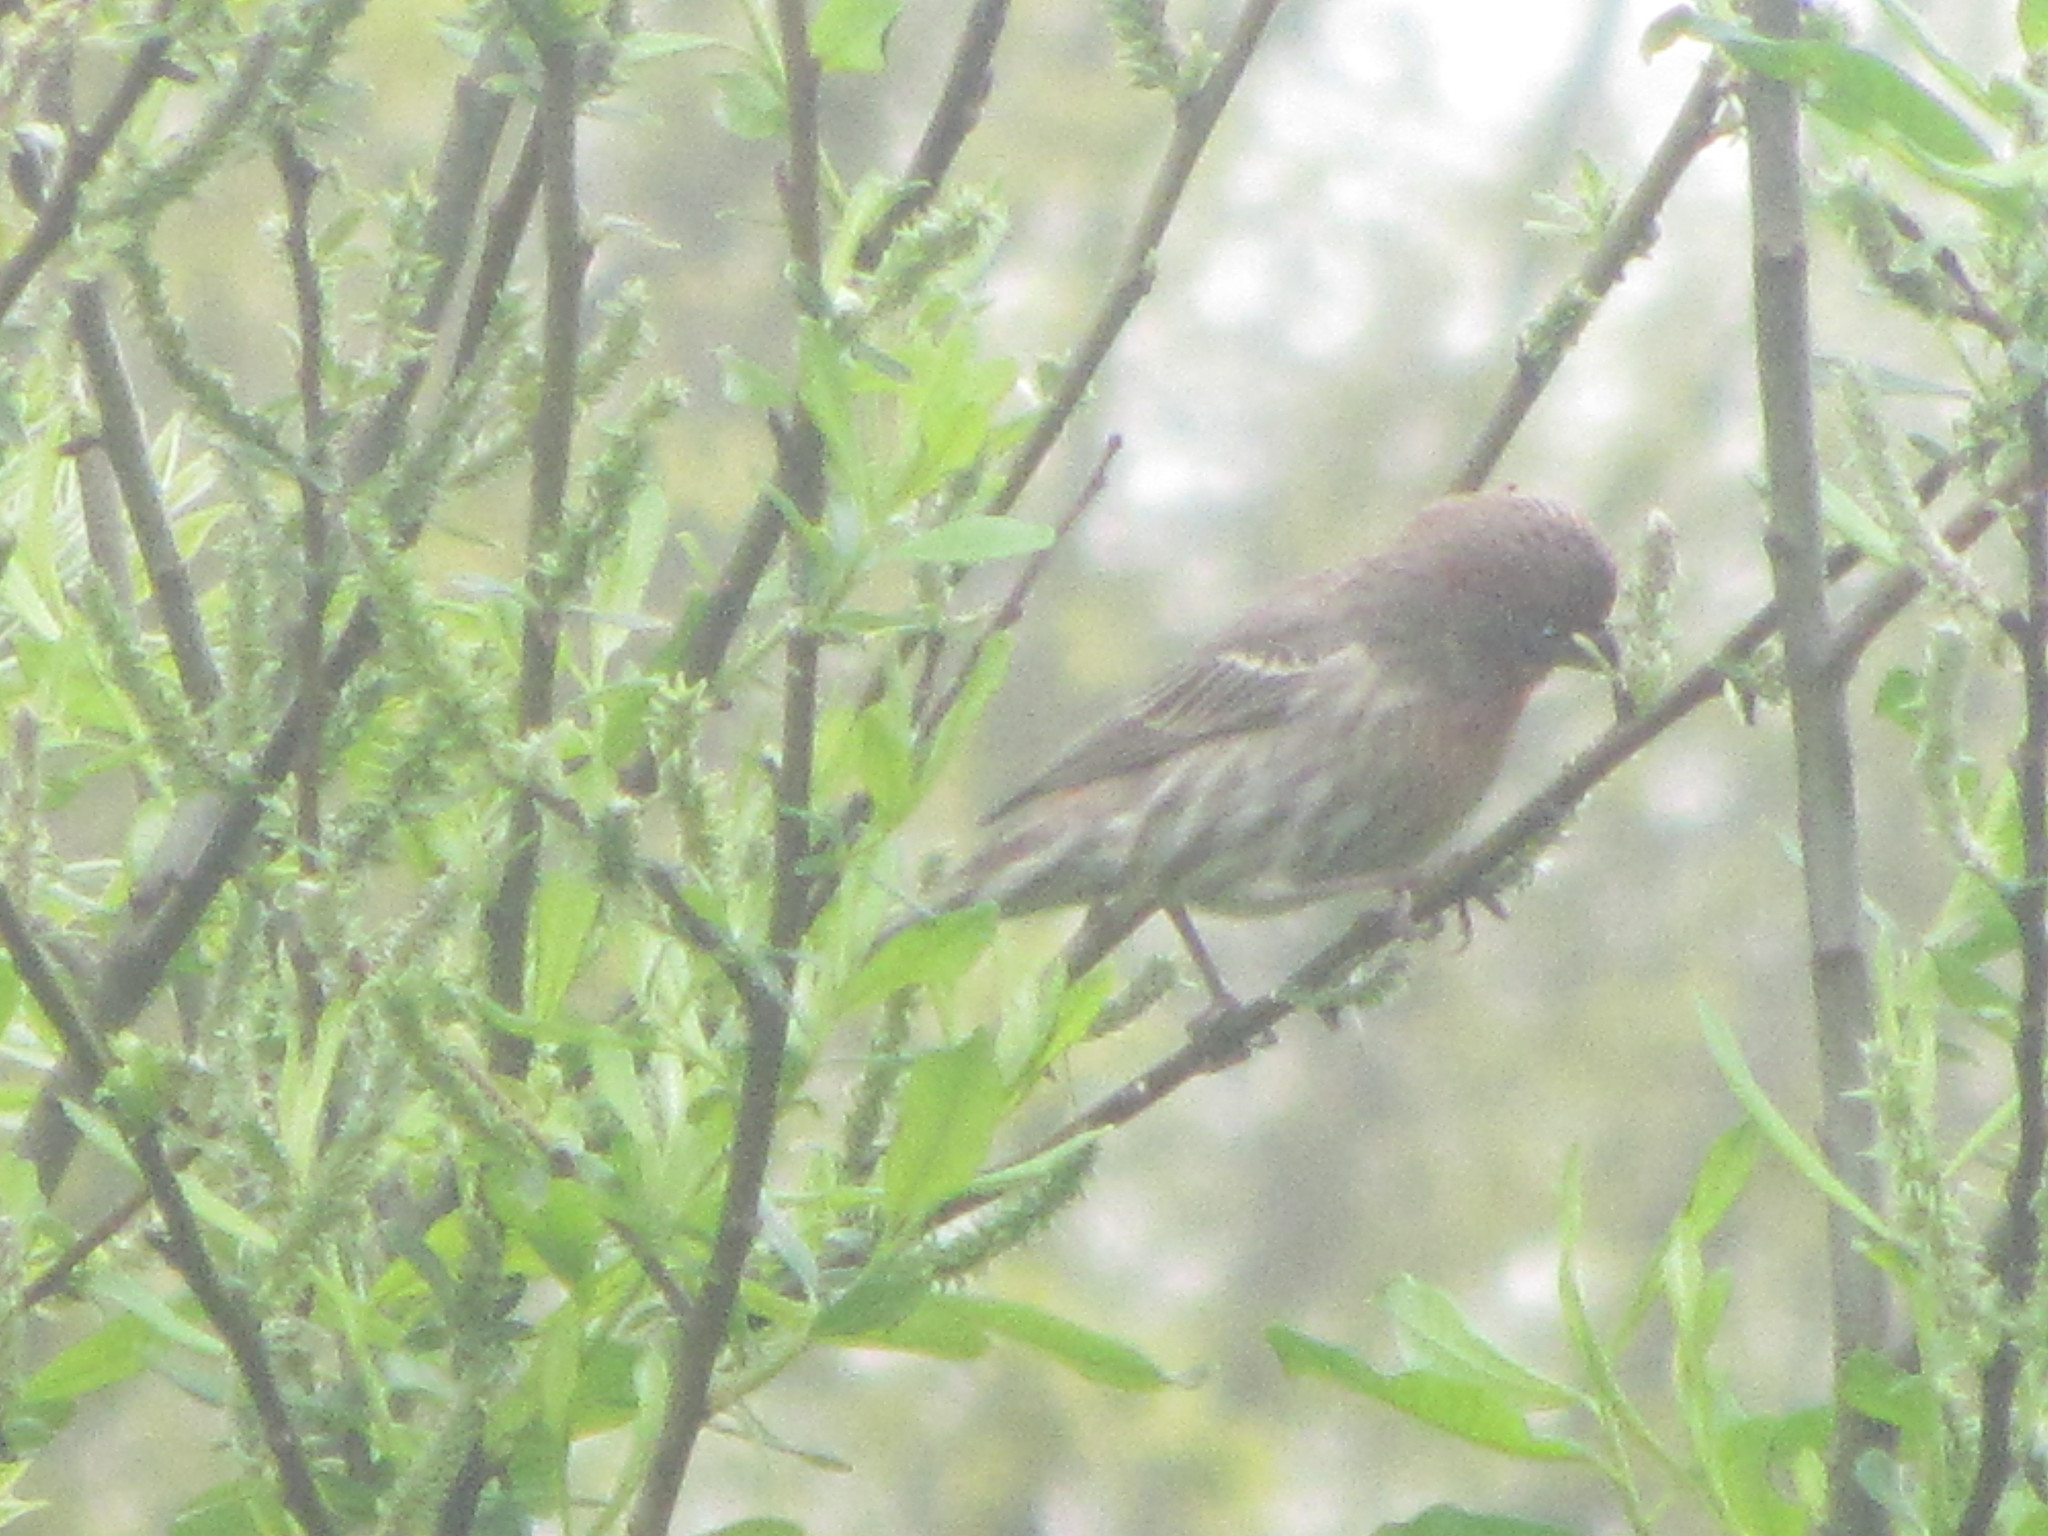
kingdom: Animalia
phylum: Chordata
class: Aves
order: Passeriformes
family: Fringillidae
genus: Haemorhous
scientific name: Haemorhous mexicanus
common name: House finch
